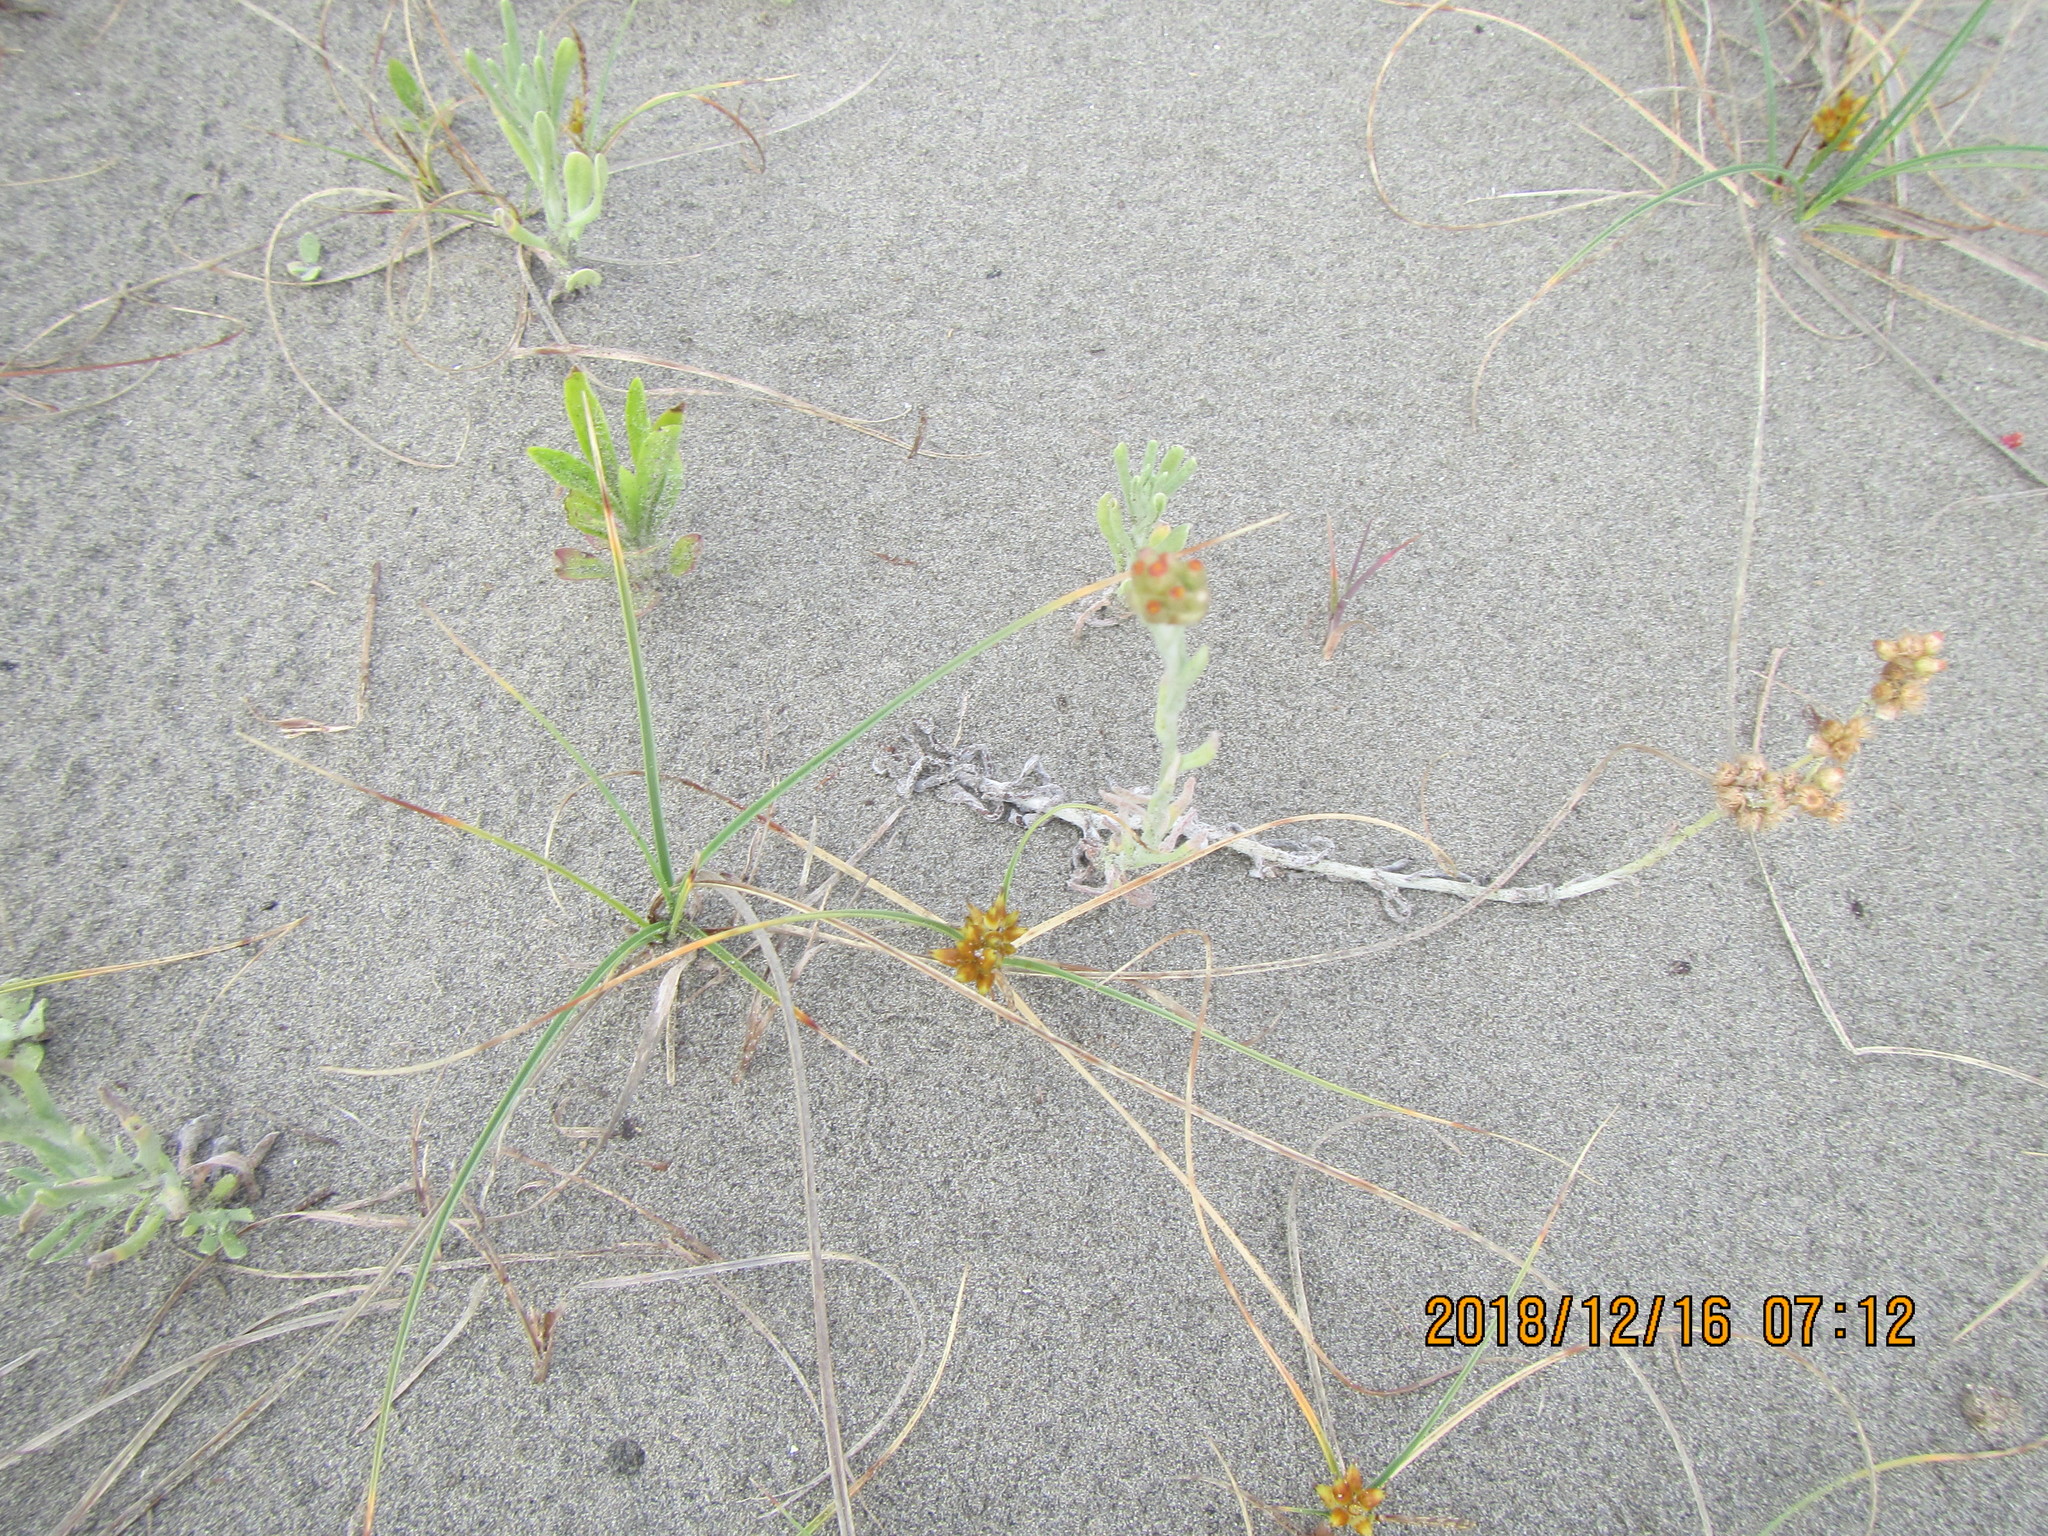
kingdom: Plantae
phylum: Tracheophyta
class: Magnoliopsida
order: Asterales
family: Asteraceae
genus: Helichrysum
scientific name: Helichrysum luteoalbum
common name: Daisy
